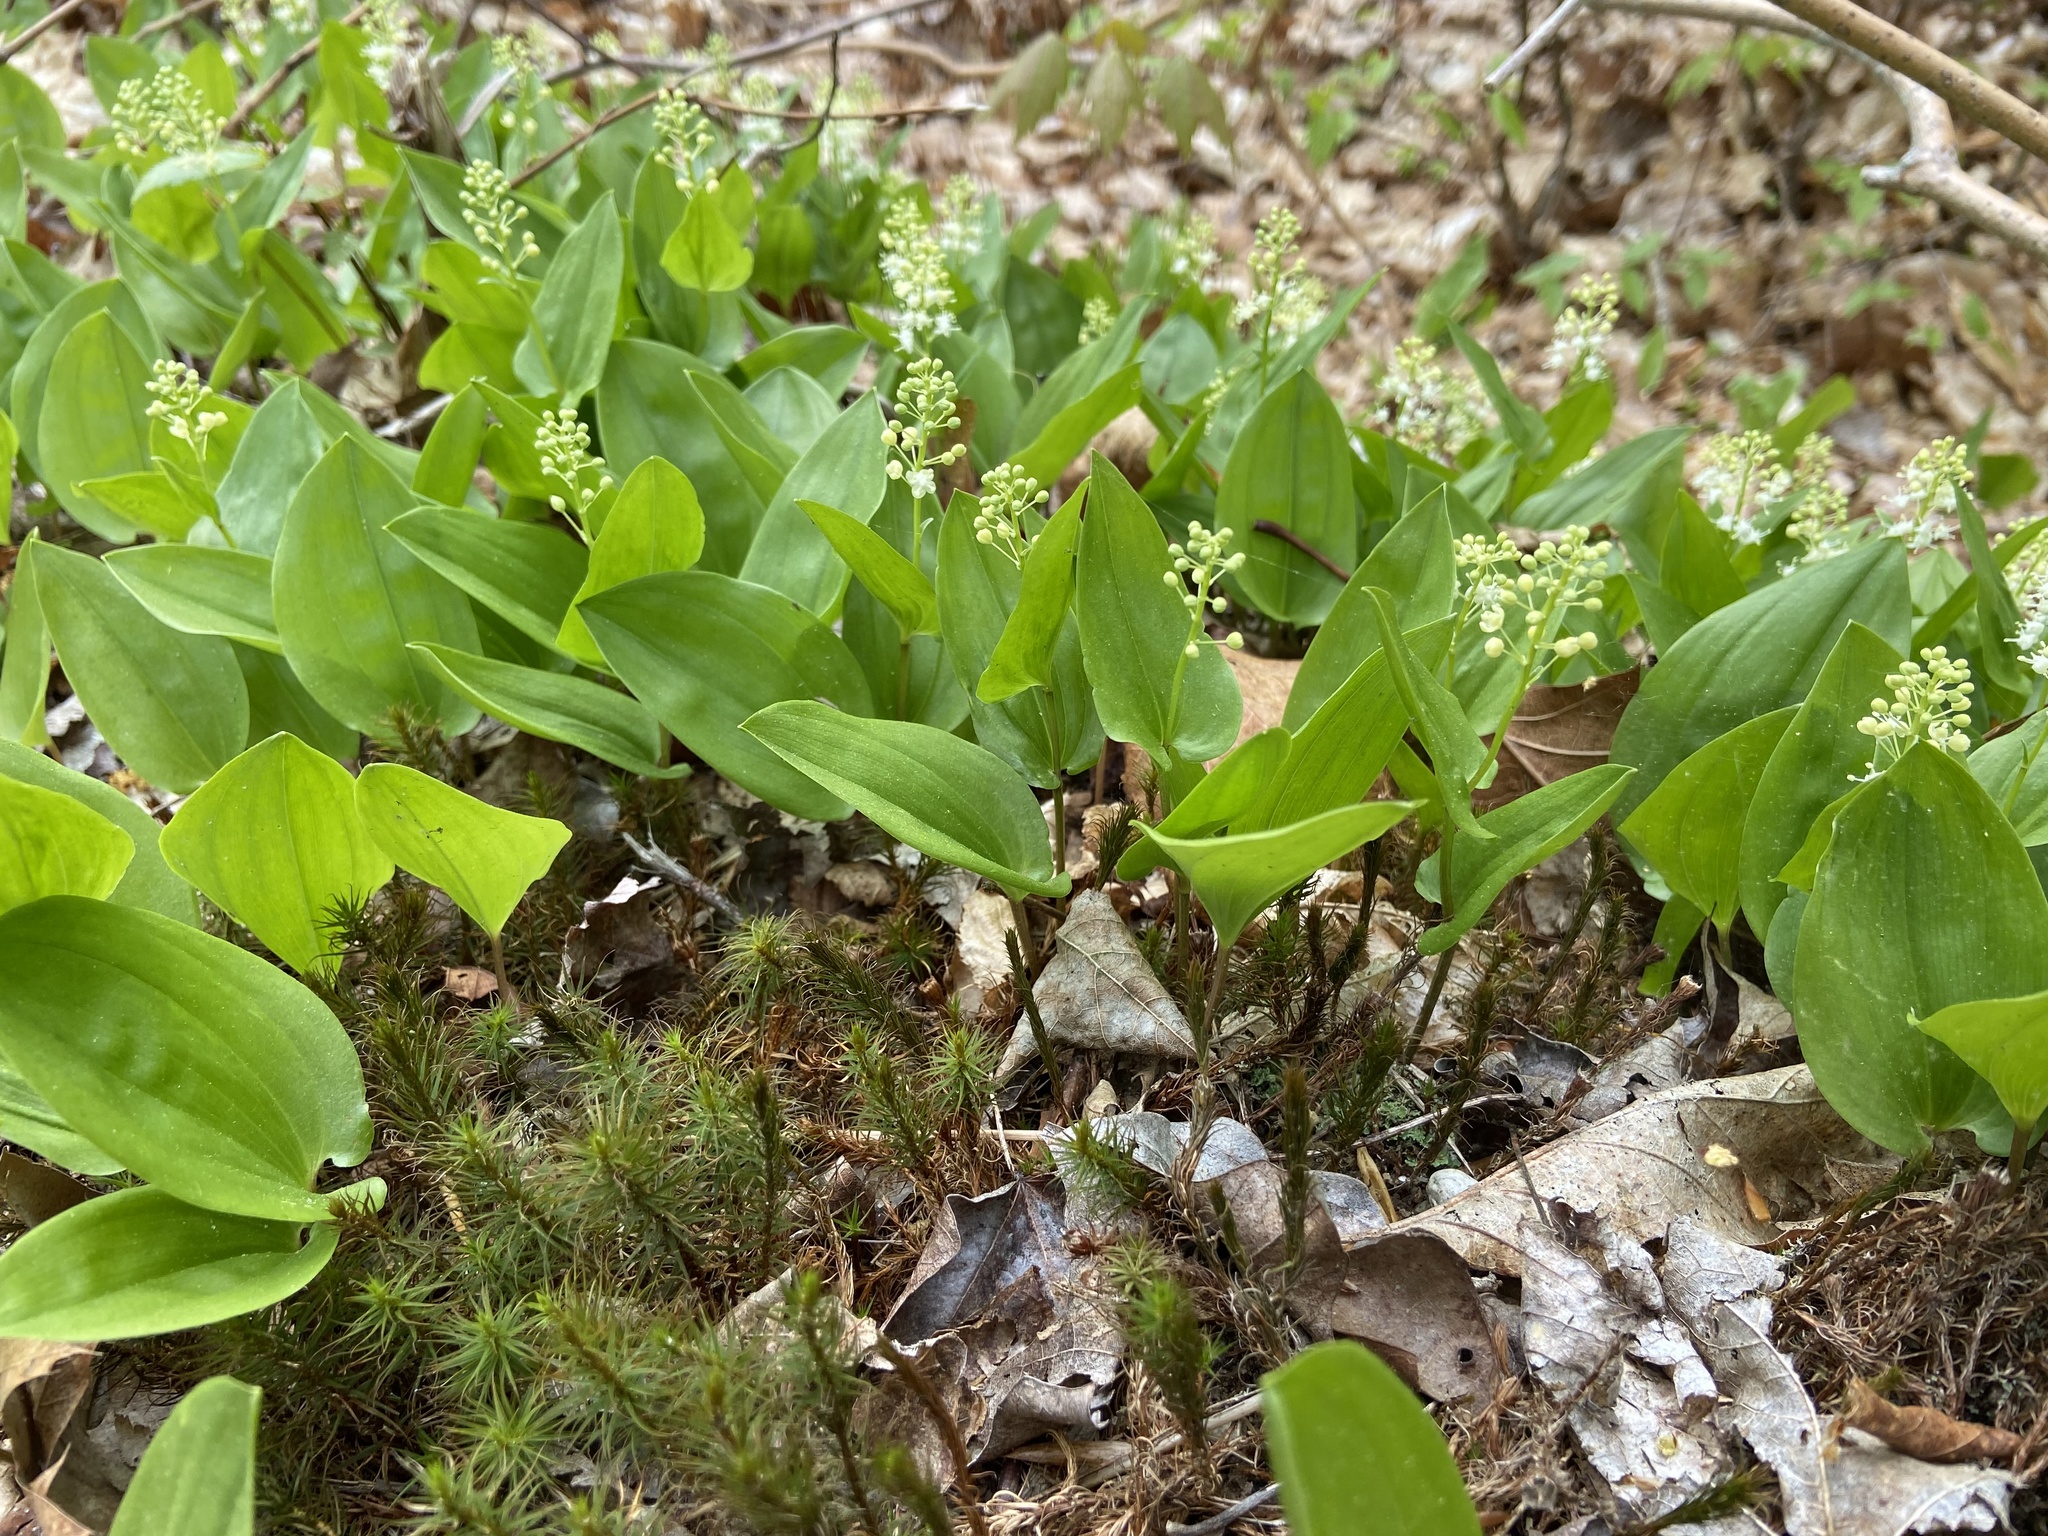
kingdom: Plantae
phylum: Tracheophyta
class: Liliopsida
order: Asparagales
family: Asparagaceae
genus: Maianthemum
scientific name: Maianthemum canadense
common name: False lily-of-the-valley
